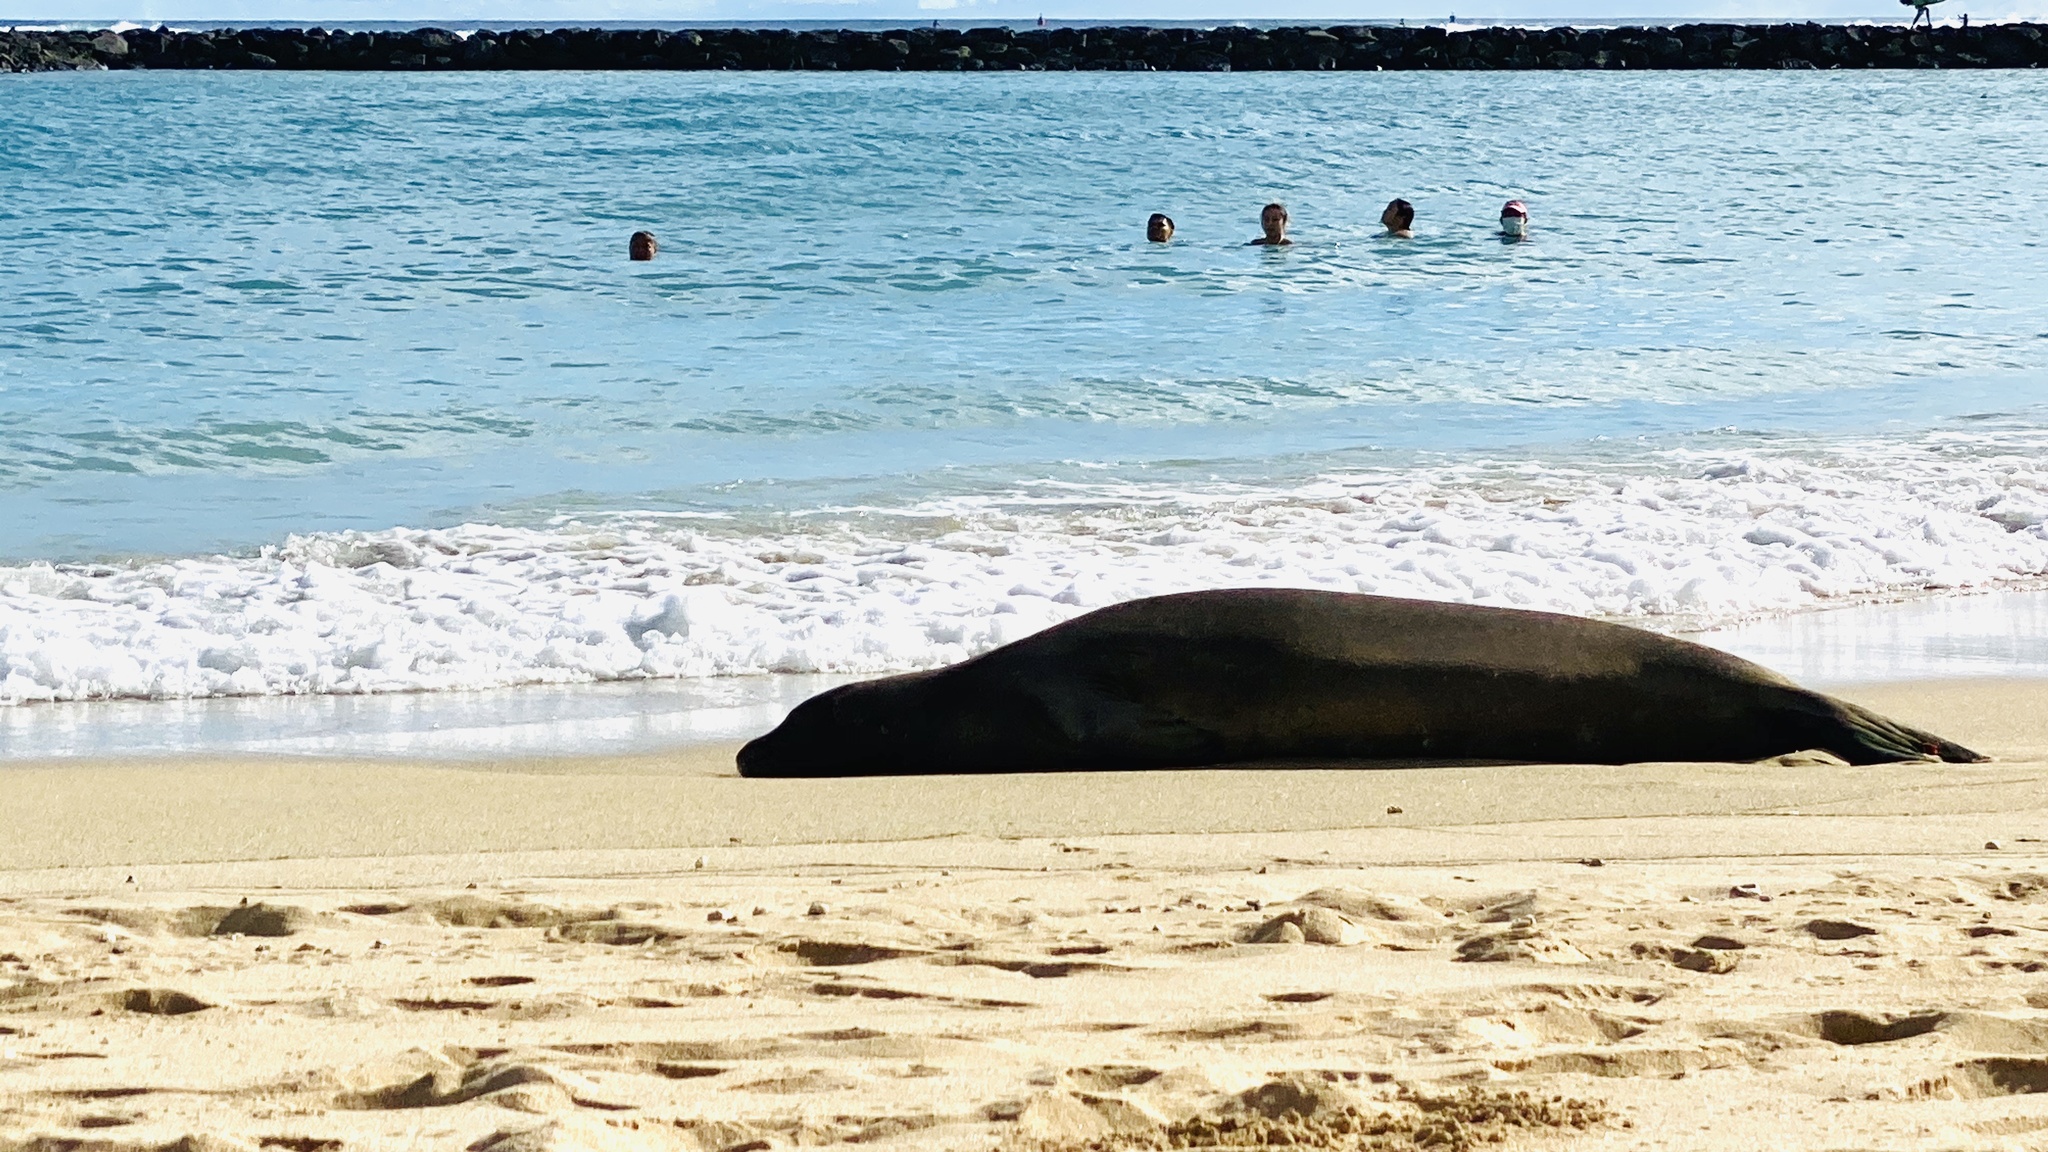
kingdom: Animalia
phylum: Chordata
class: Mammalia
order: Carnivora
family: Phocidae
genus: Neomonachus
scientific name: Neomonachus schauinslandi
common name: Hawaiian monk seal
